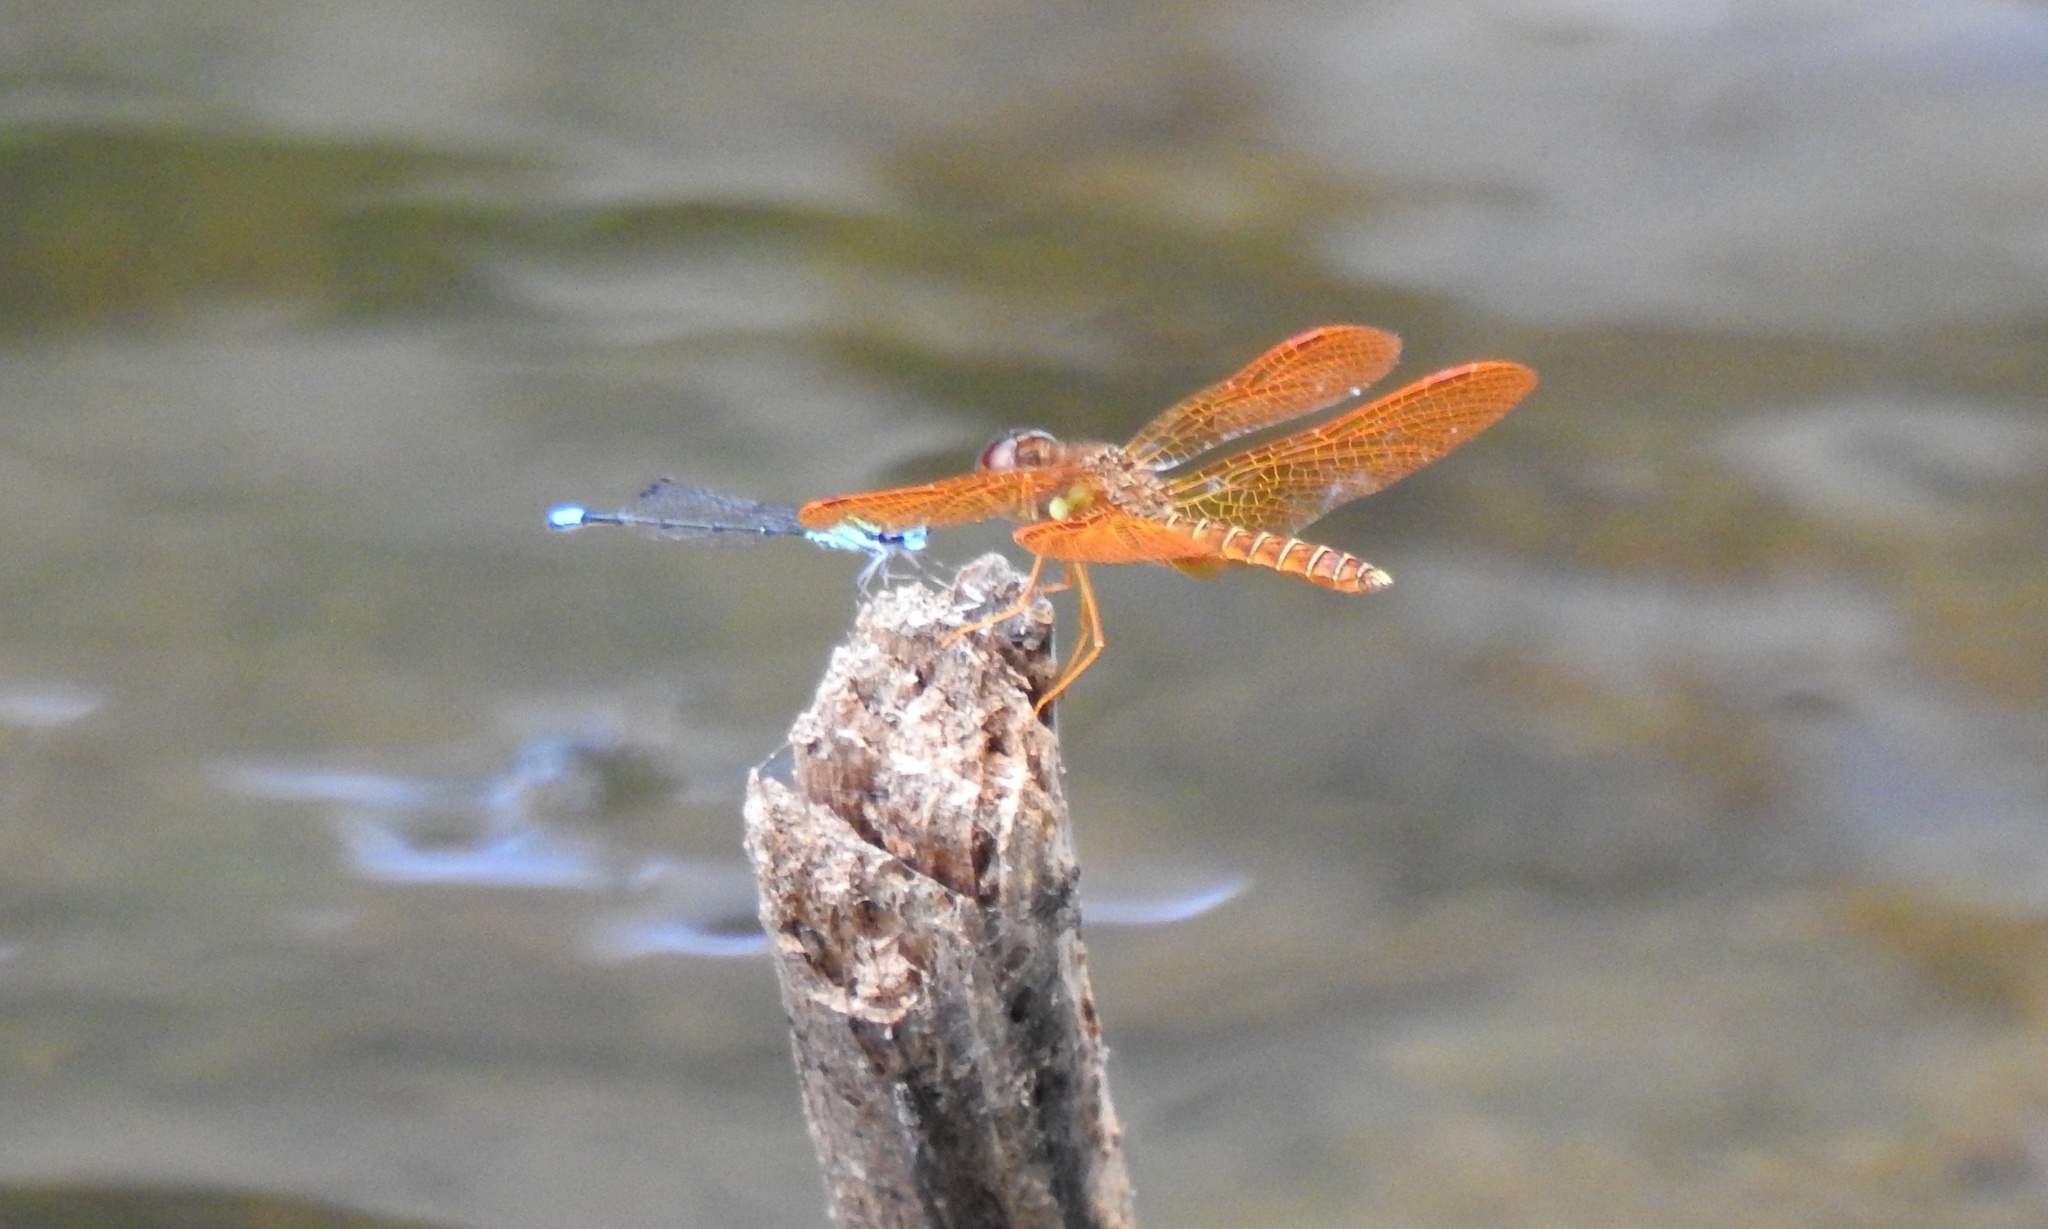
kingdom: Animalia
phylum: Arthropoda
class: Insecta
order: Odonata
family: Coenagrionidae
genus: Enallagma
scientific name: Enallagma geminatum
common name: Skimming bluet
